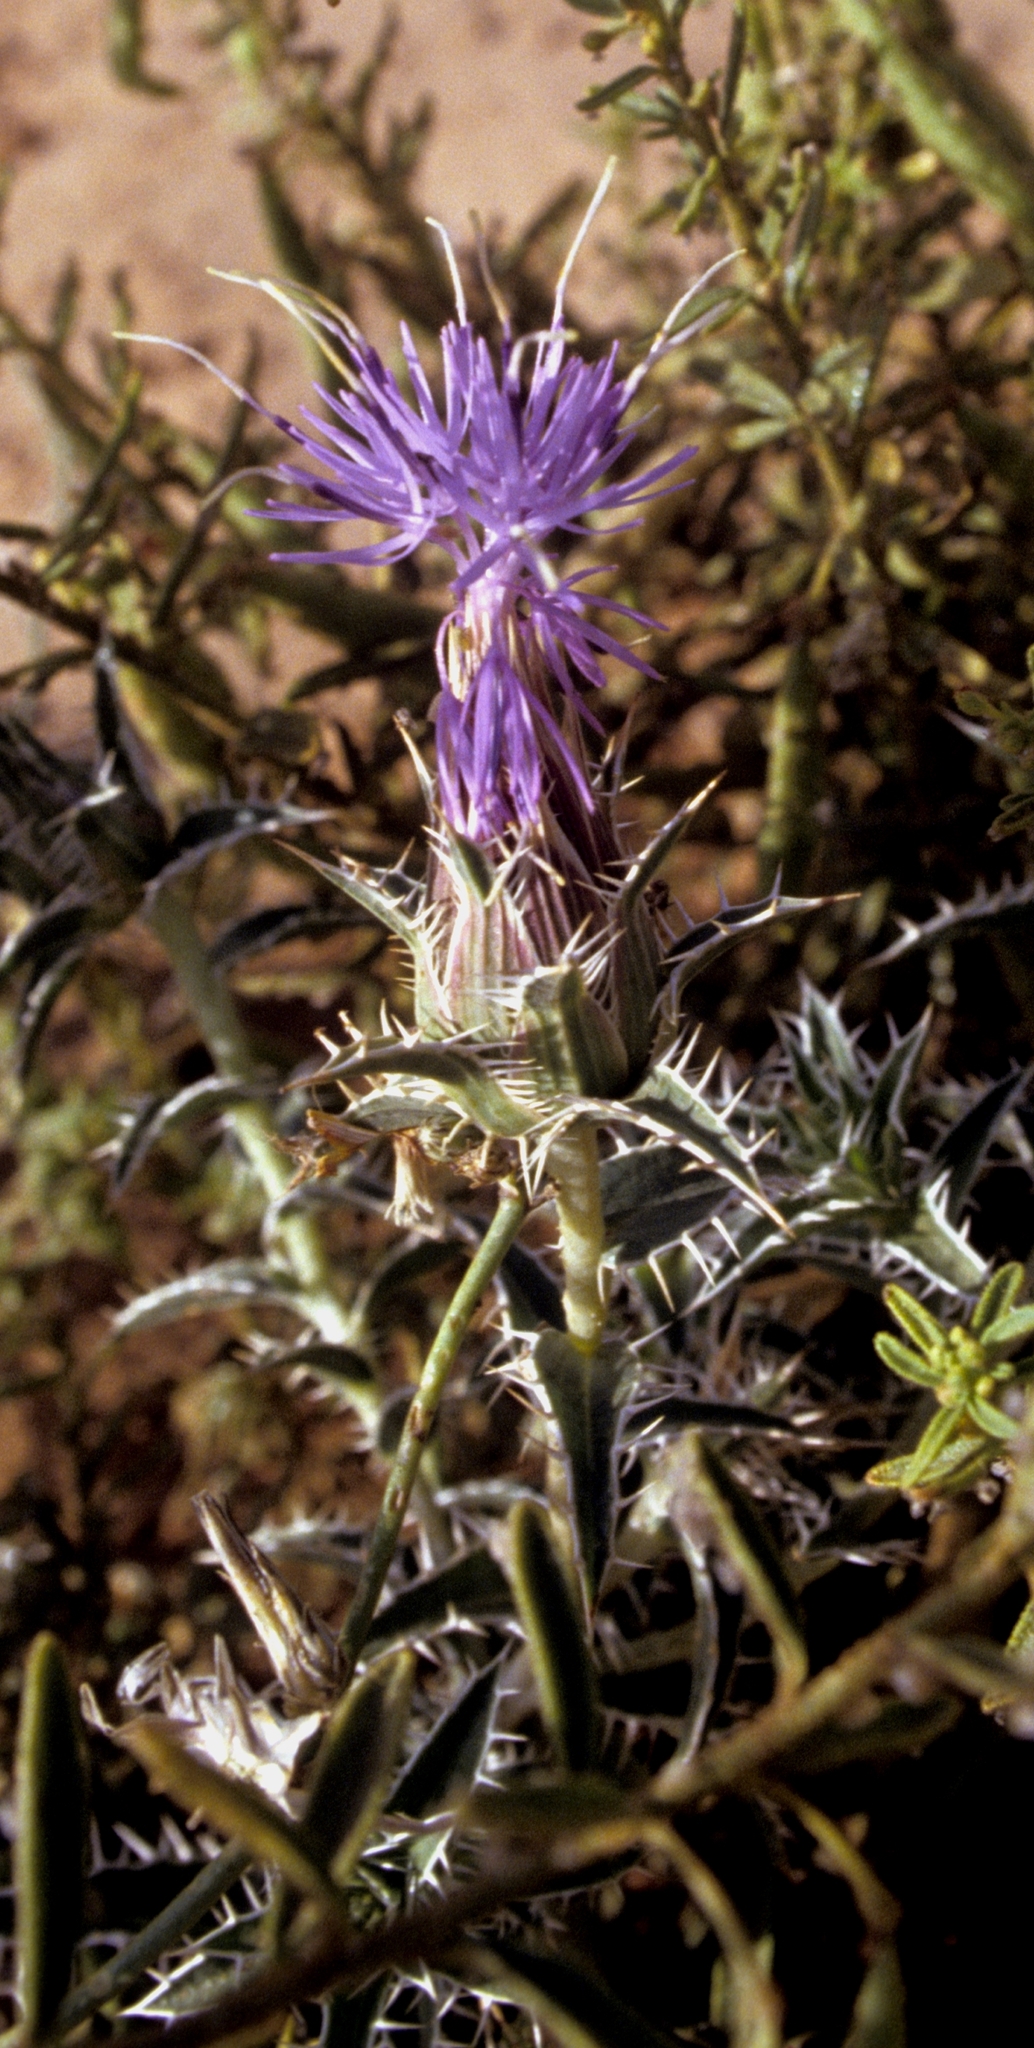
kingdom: Plantae
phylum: Tracheophyta
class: Magnoliopsida
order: Asterales
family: Asteraceae
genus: Carthamus
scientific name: Carthamus duvauxii
